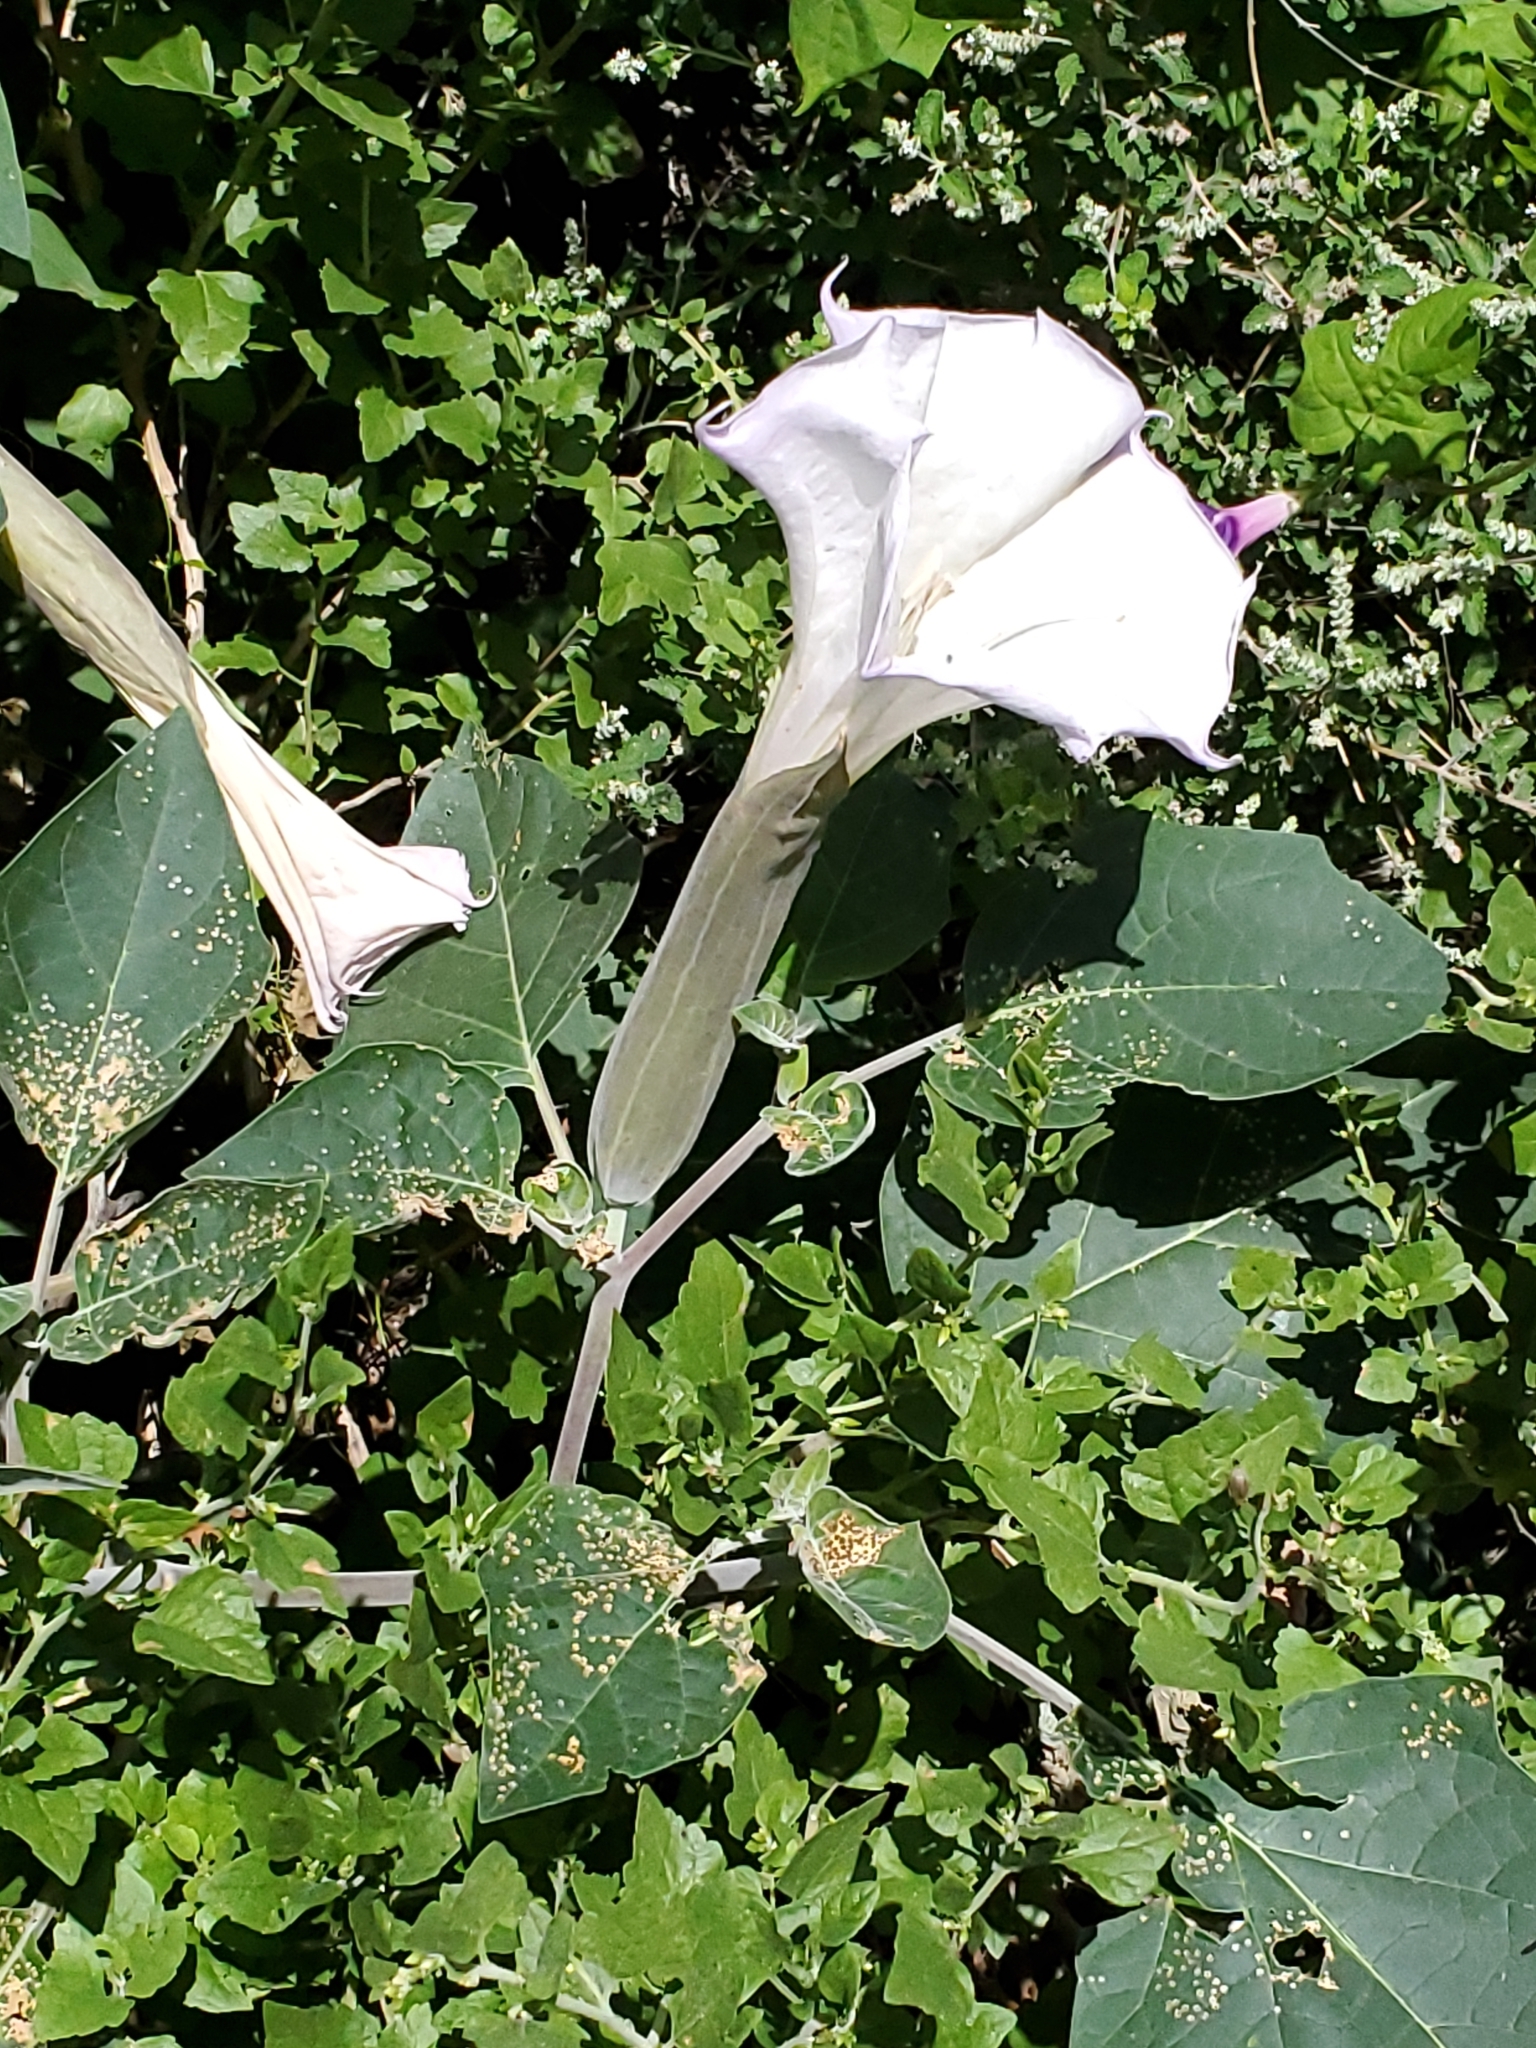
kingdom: Plantae
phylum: Tracheophyta
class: Magnoliopsida
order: Solanales
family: Solanaceae
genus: Datura
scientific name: Datura wrightii
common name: Sacred thorn-apple
